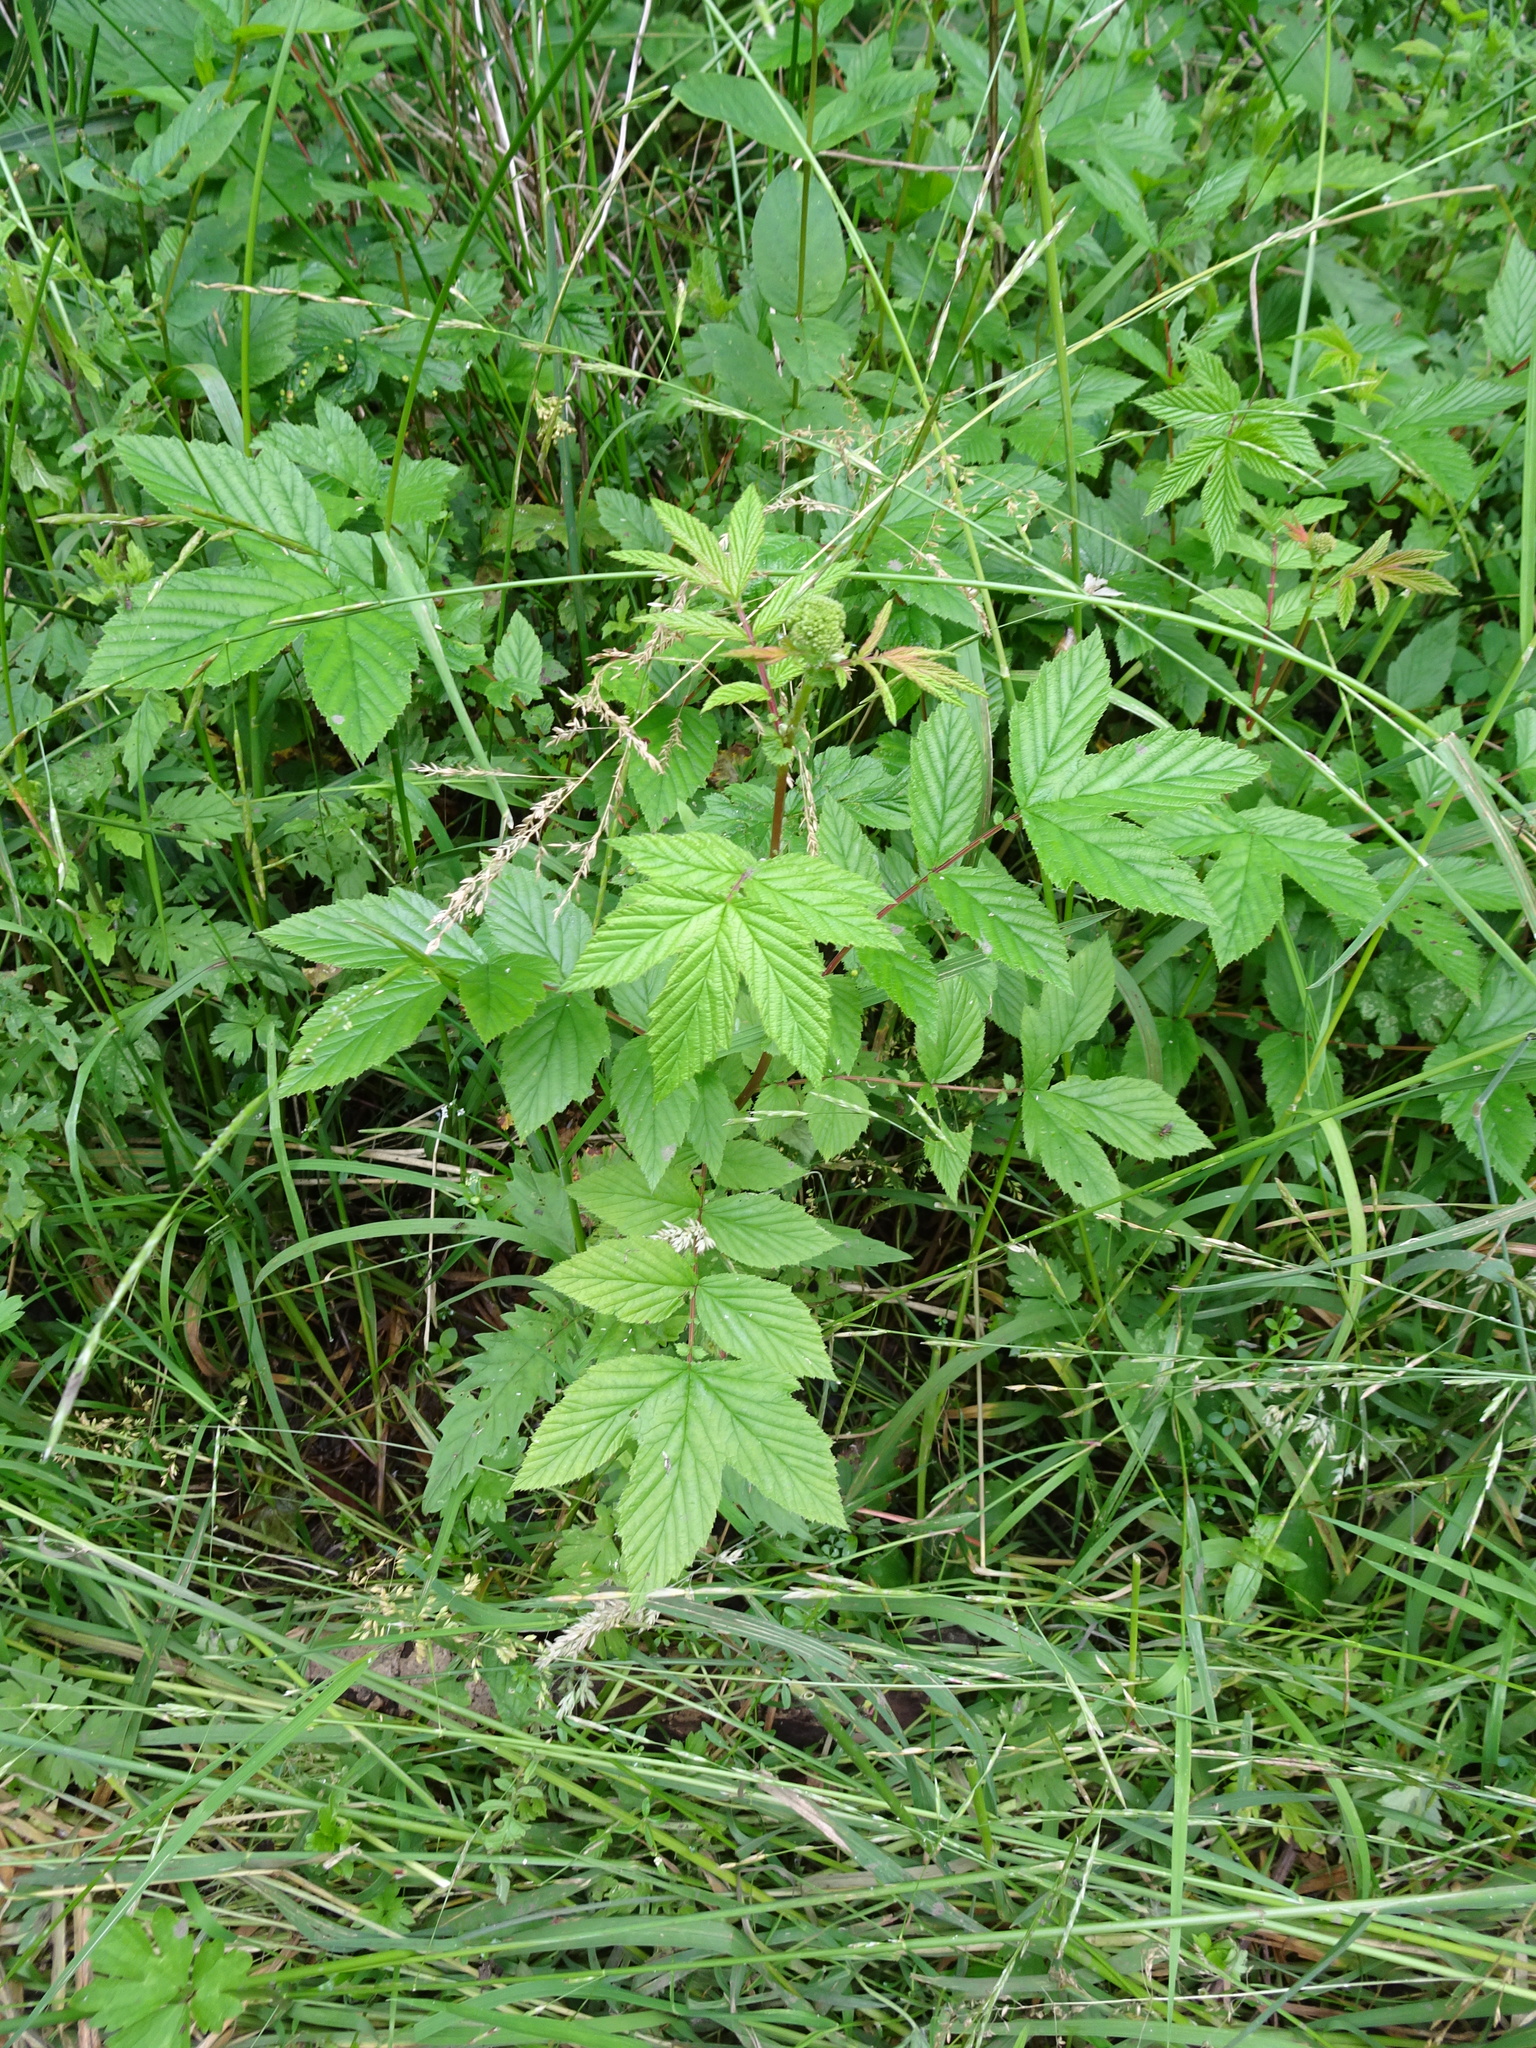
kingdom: Plantae
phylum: Tracheophyta
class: Magnoliopsida
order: Rosales
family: Rosaceae
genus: Filipendula
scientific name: Filipendula ulmaria
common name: Meadowsweet
